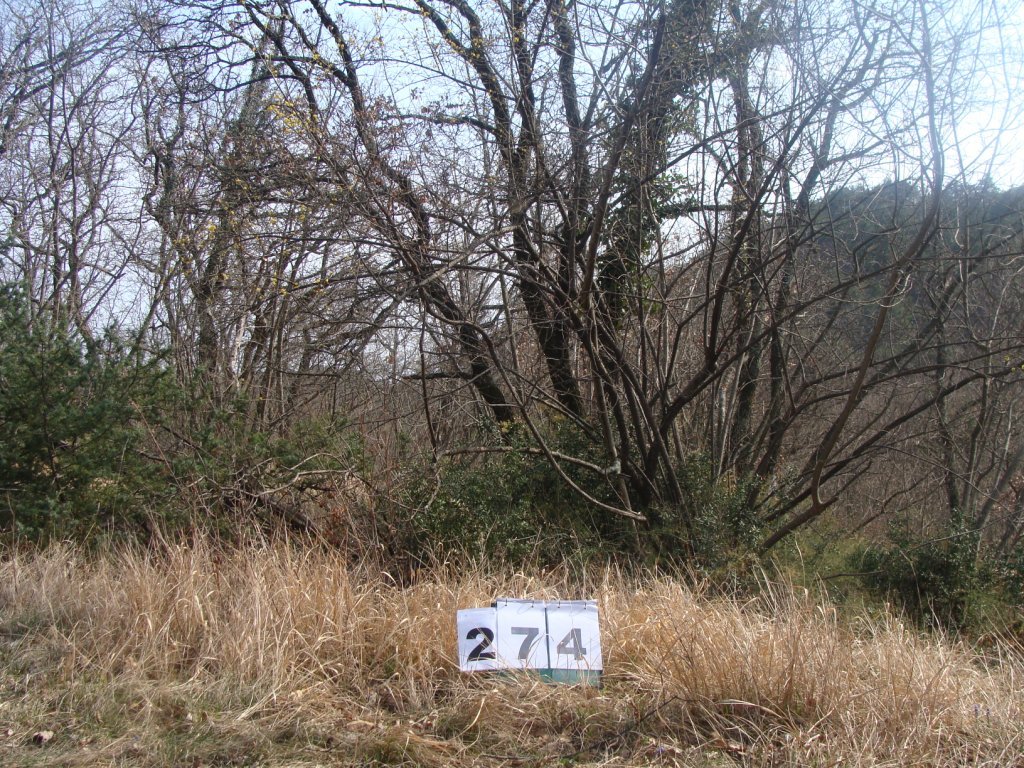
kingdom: Plantae
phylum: Tracheophyta
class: Magnoliopsida
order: Cornales
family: Cornaceae
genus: Cornus
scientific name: Cornus mas
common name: Cornelian-cherry
